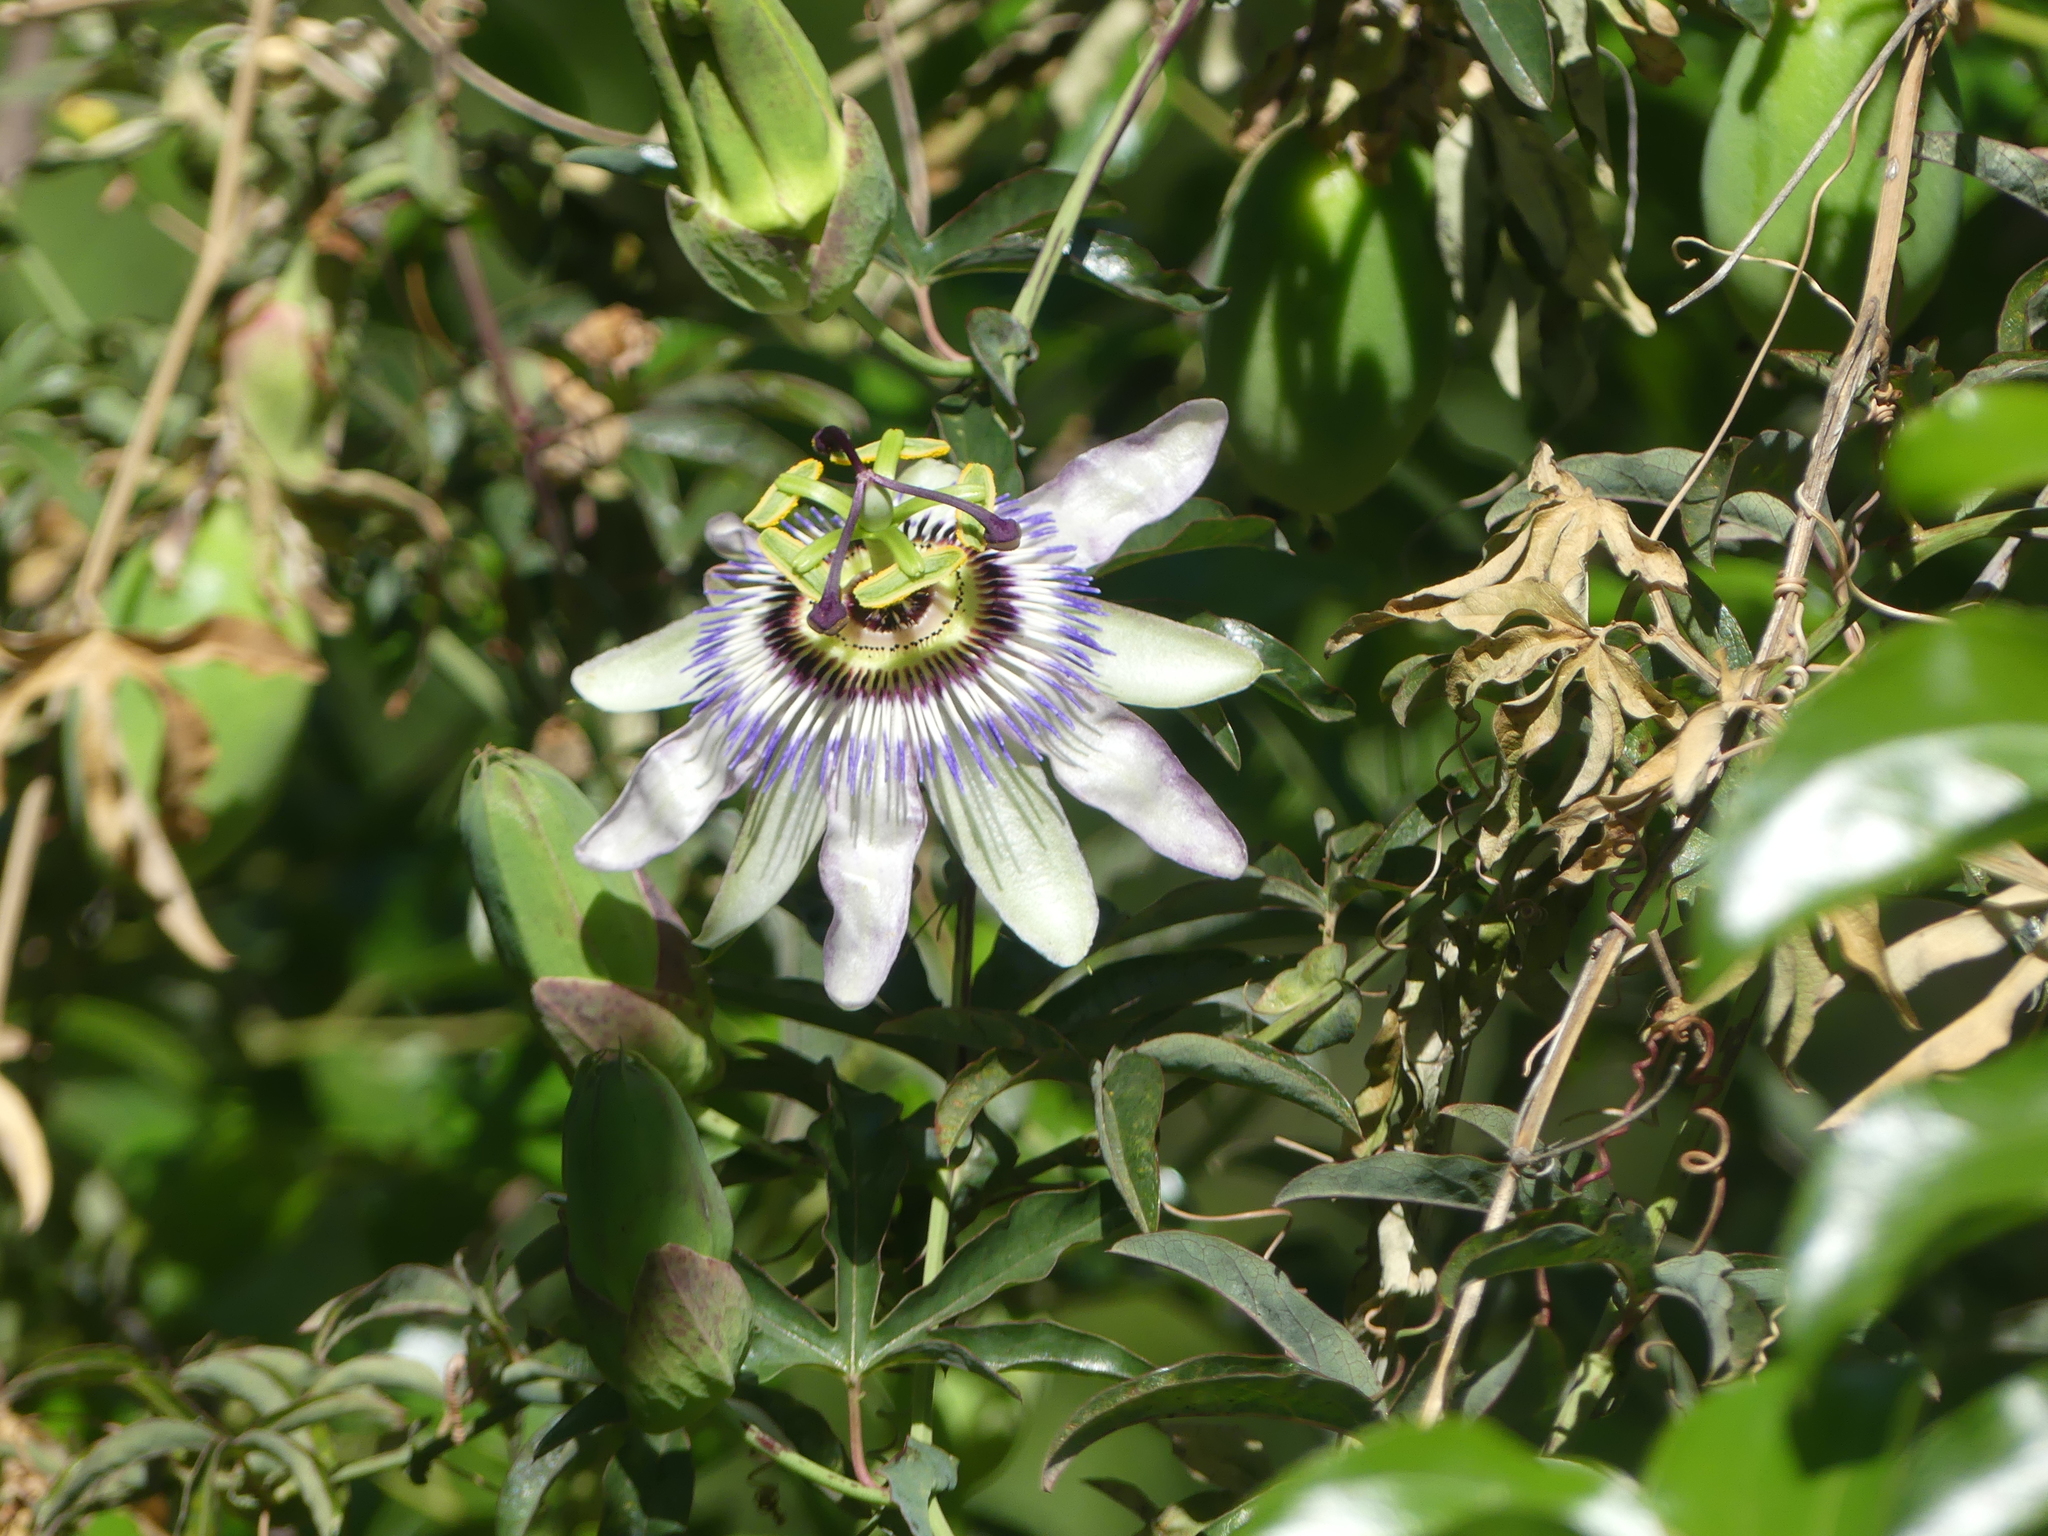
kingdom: Plantae
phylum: Tracheophyta
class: Magnoliopsida
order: Malpighiales
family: Passifloraceae
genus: Passiflora
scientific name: Passiflora caerulea
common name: Blue passionflower
